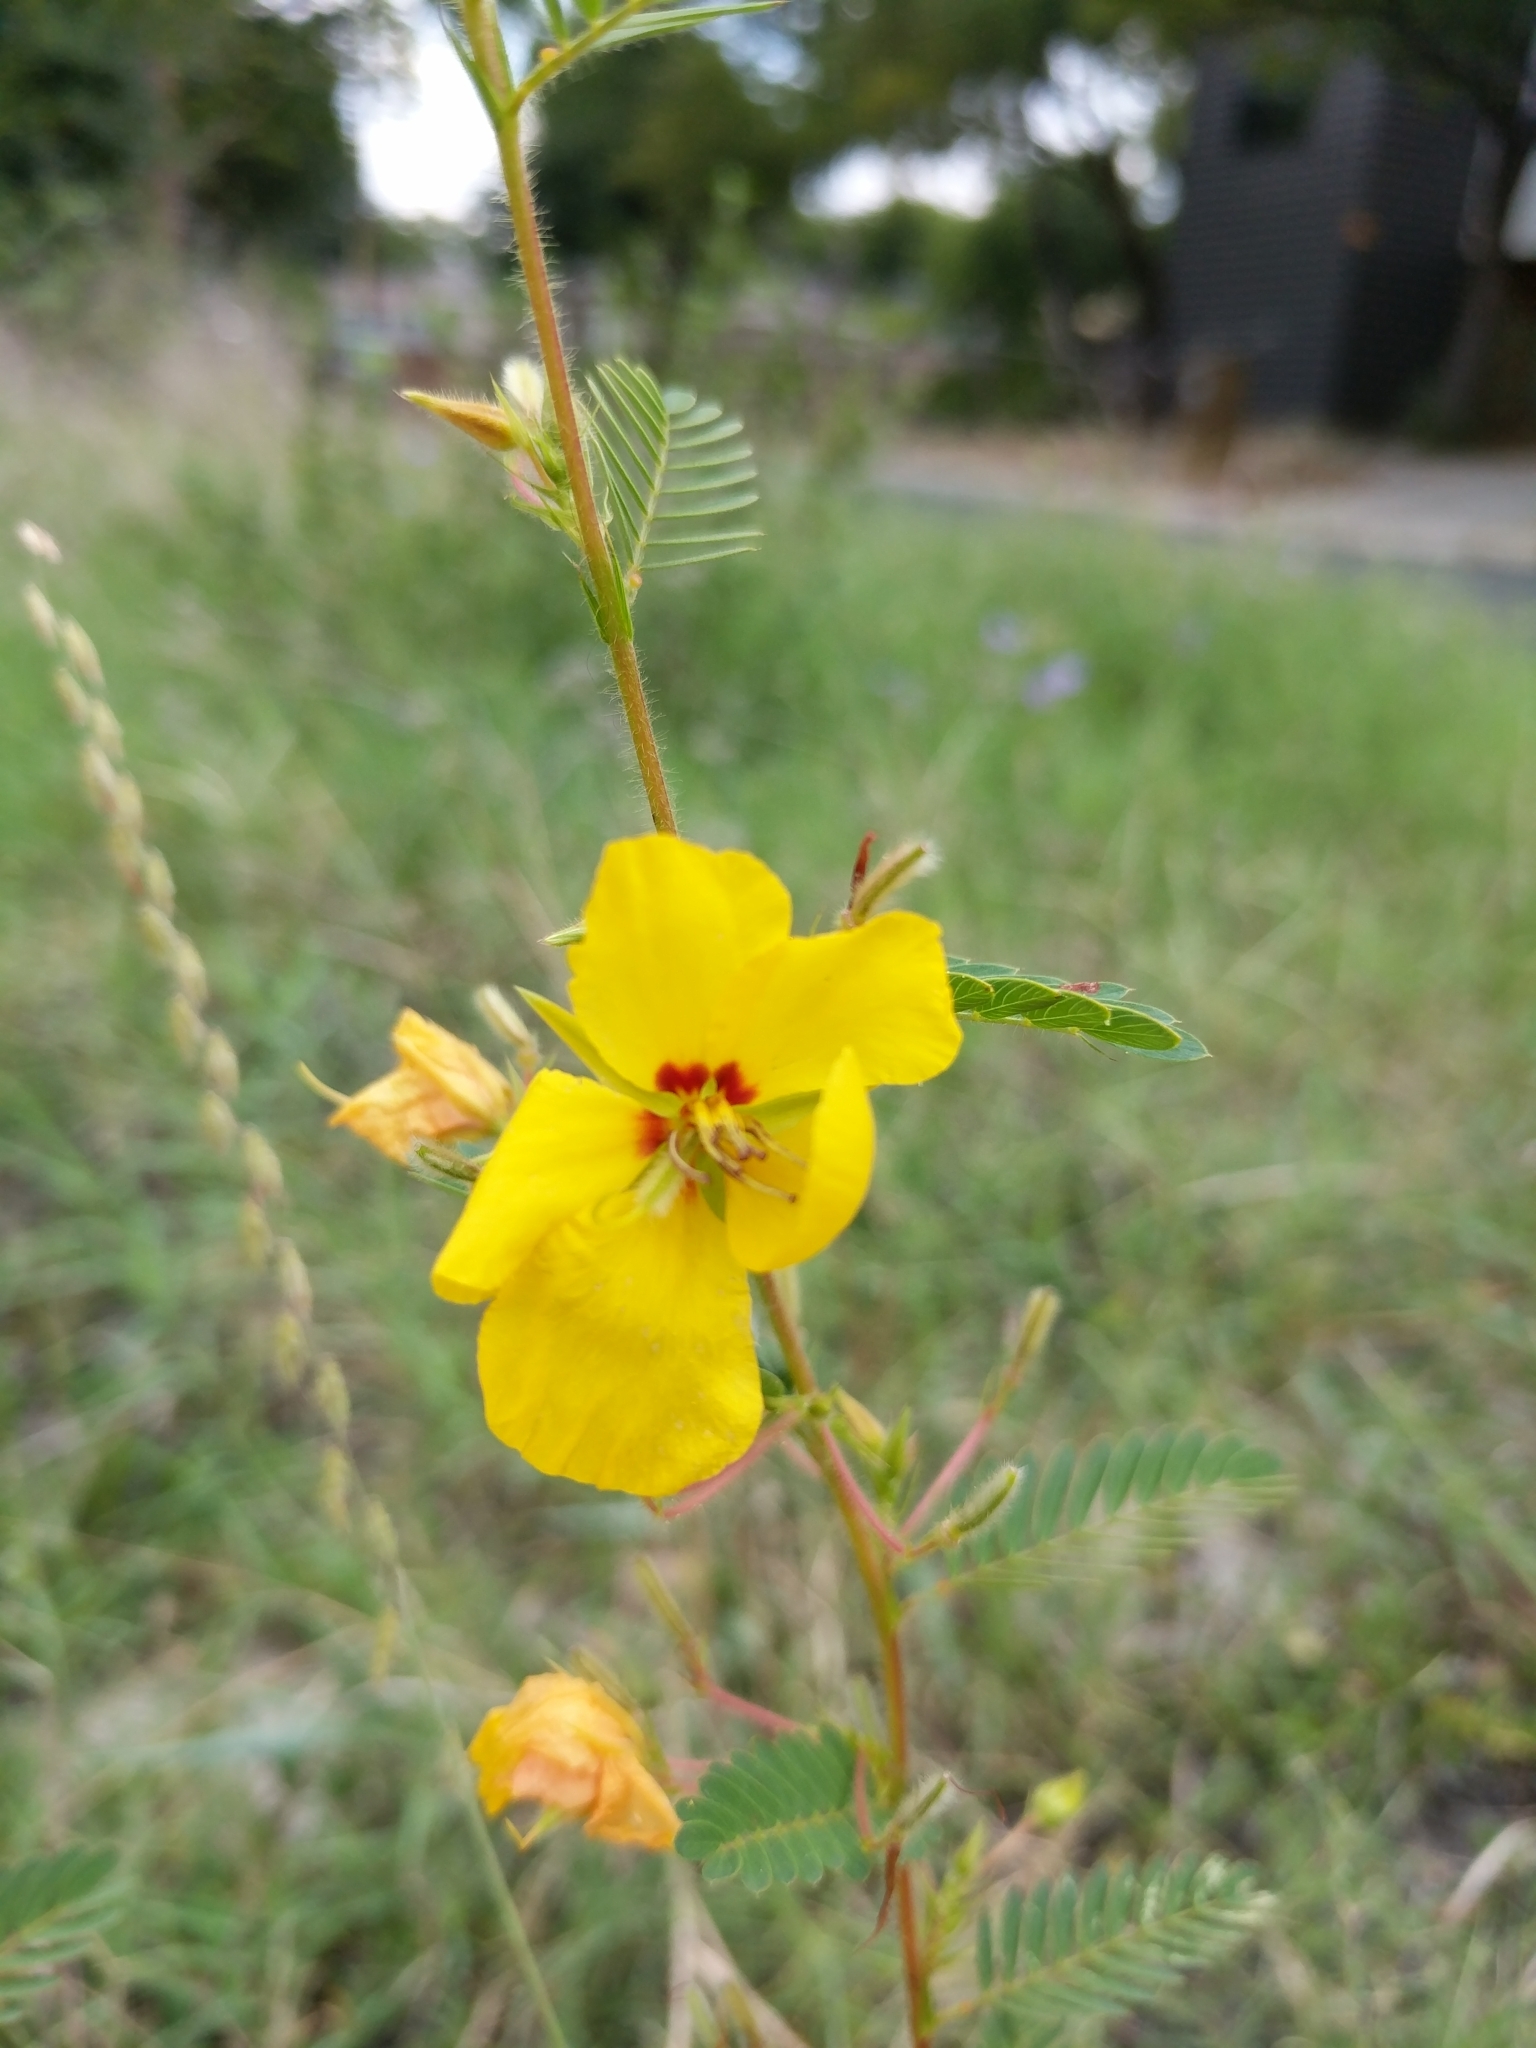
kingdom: Plantae
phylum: Tracheophyta
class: Magnoliopsida
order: Fabales
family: Fabaceae
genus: Chamaecrista
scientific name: Chamaecrista fasciculata
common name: Golden cassia
